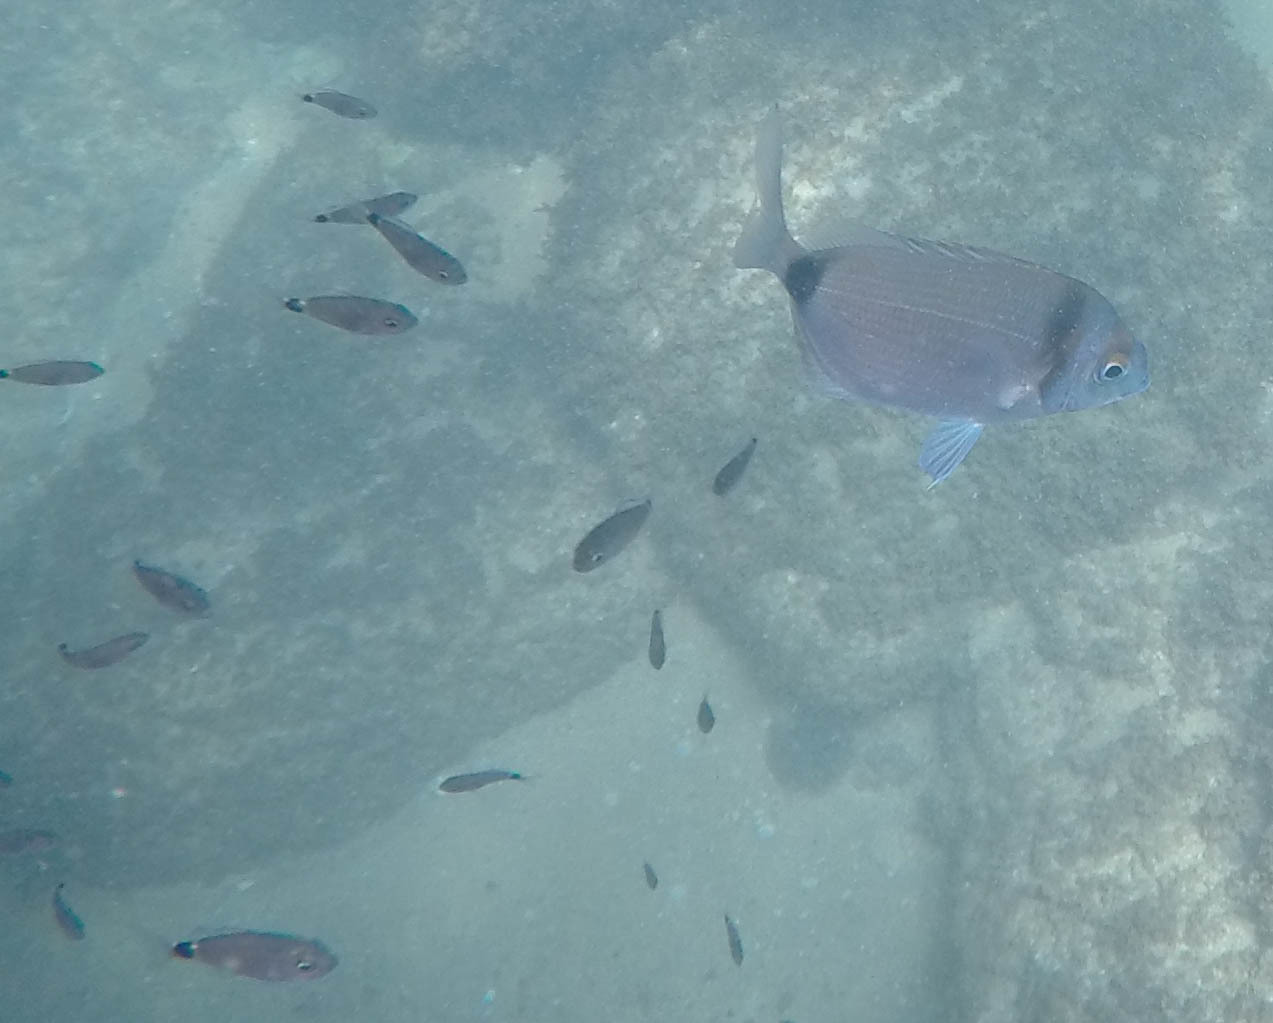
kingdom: Animalia
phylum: Chordata
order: Perciformes
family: Sparidae
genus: Diplodus
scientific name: Diplodus vulgaris
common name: Common two-banded seabream
